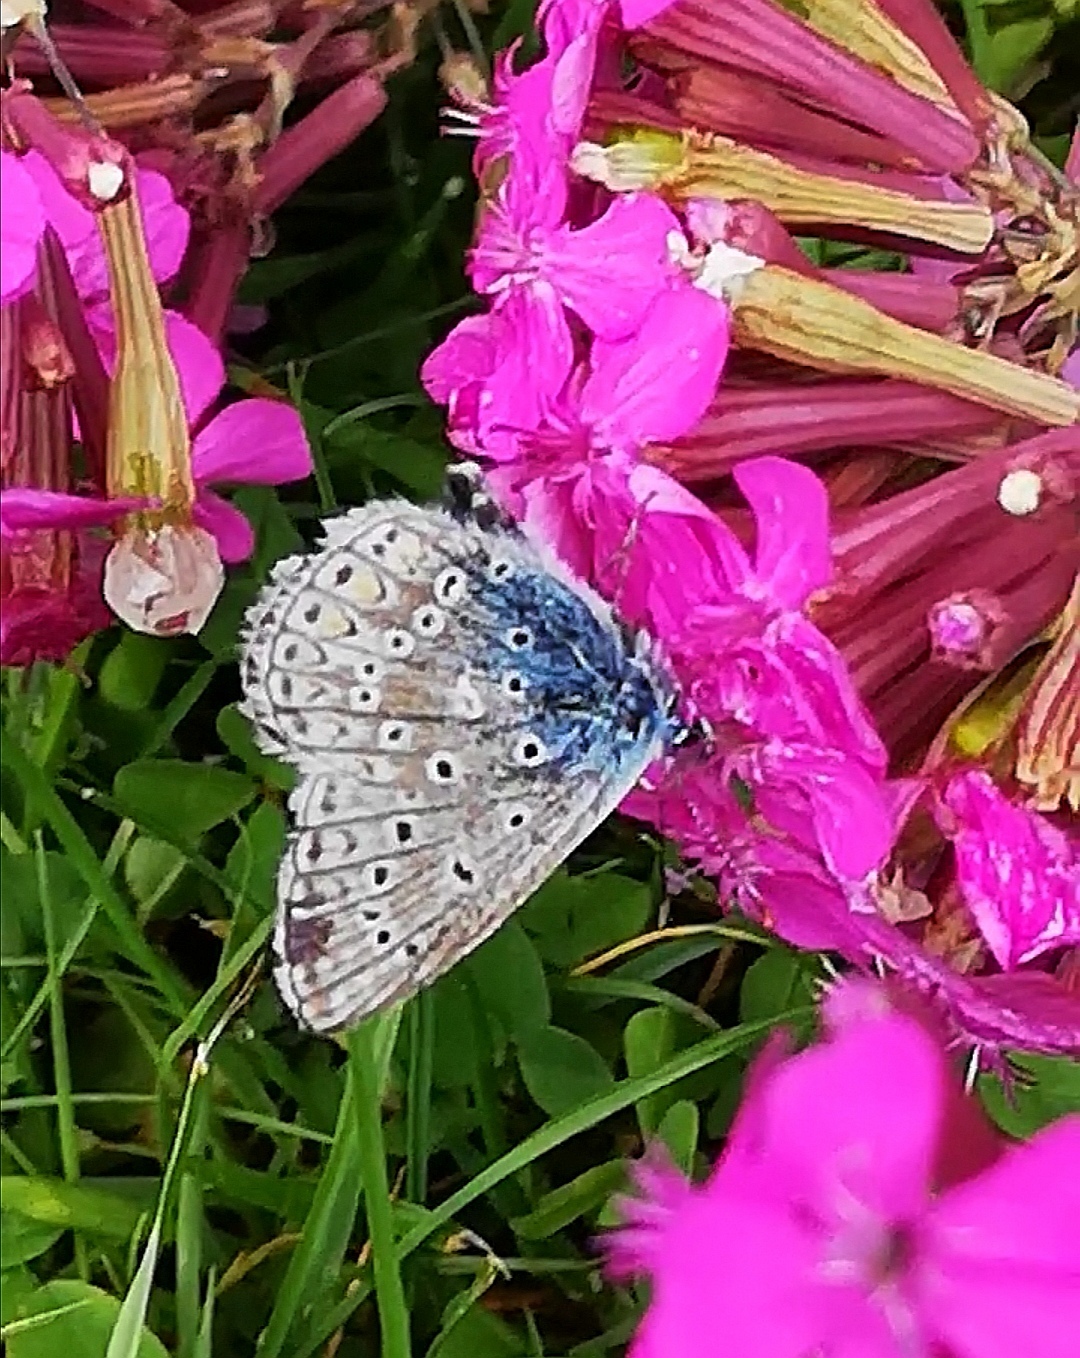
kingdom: Animalia
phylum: Arthropoda
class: Insecta
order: Lepidoptera
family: Lycaenidae
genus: Polyommatus
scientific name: Polyommatus icarus
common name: Common blue
